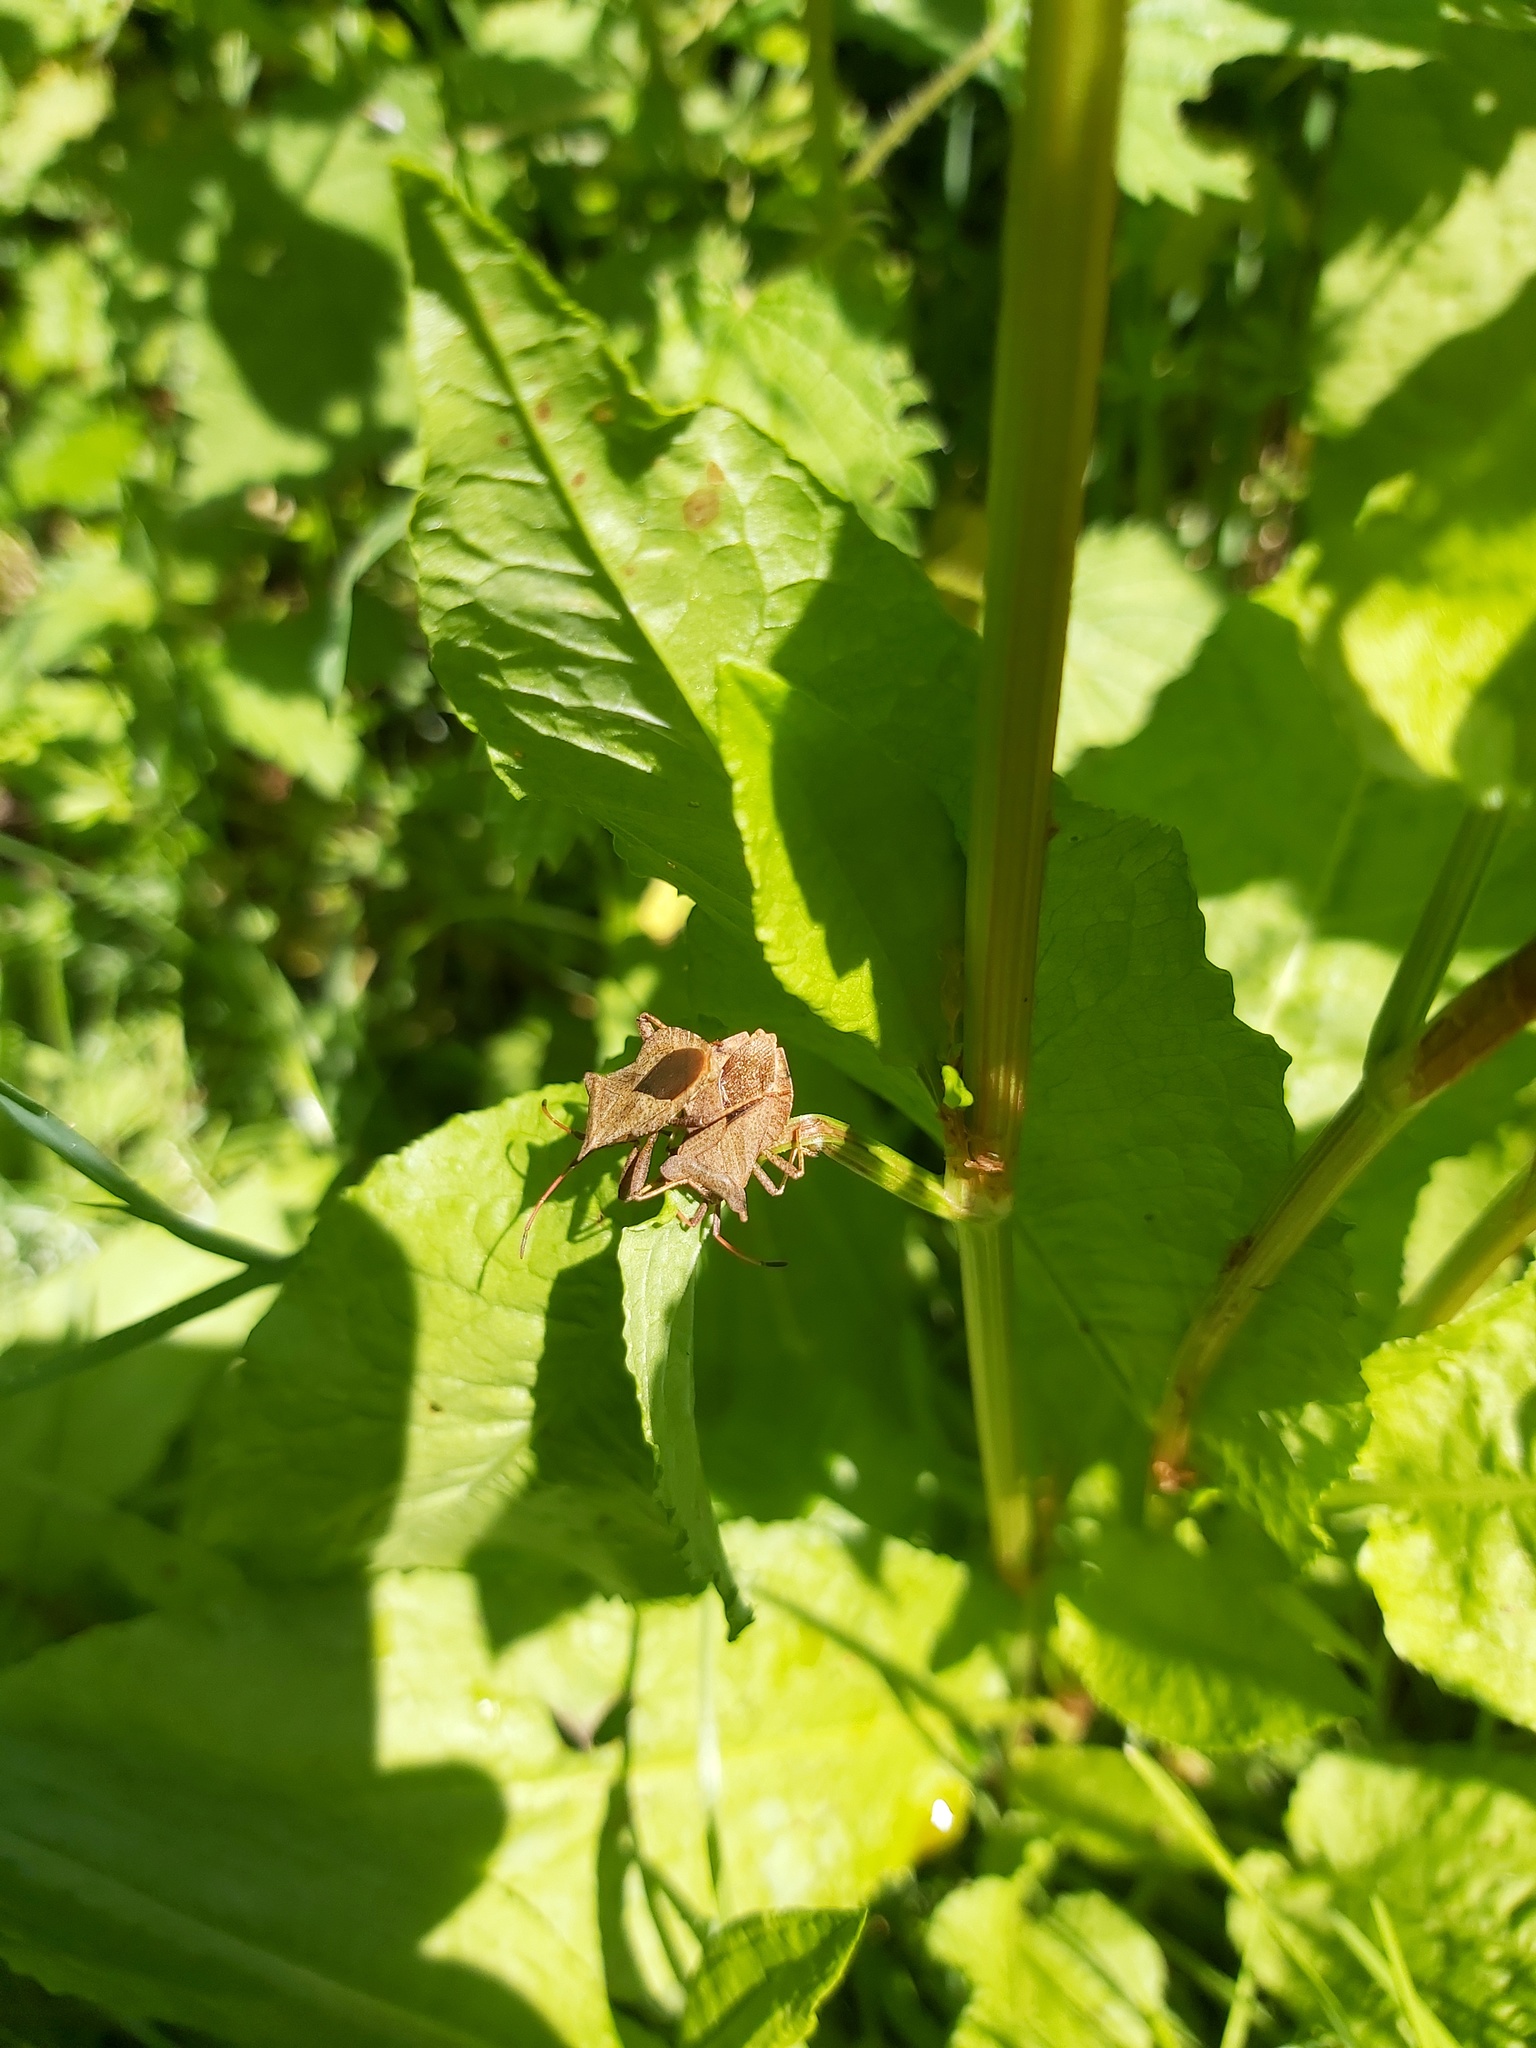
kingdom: Animalia
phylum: Arthropoda
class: Insecta
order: Hemiptera
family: Coreidae
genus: Coreus
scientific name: Coreus marginatus
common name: Dock bug
